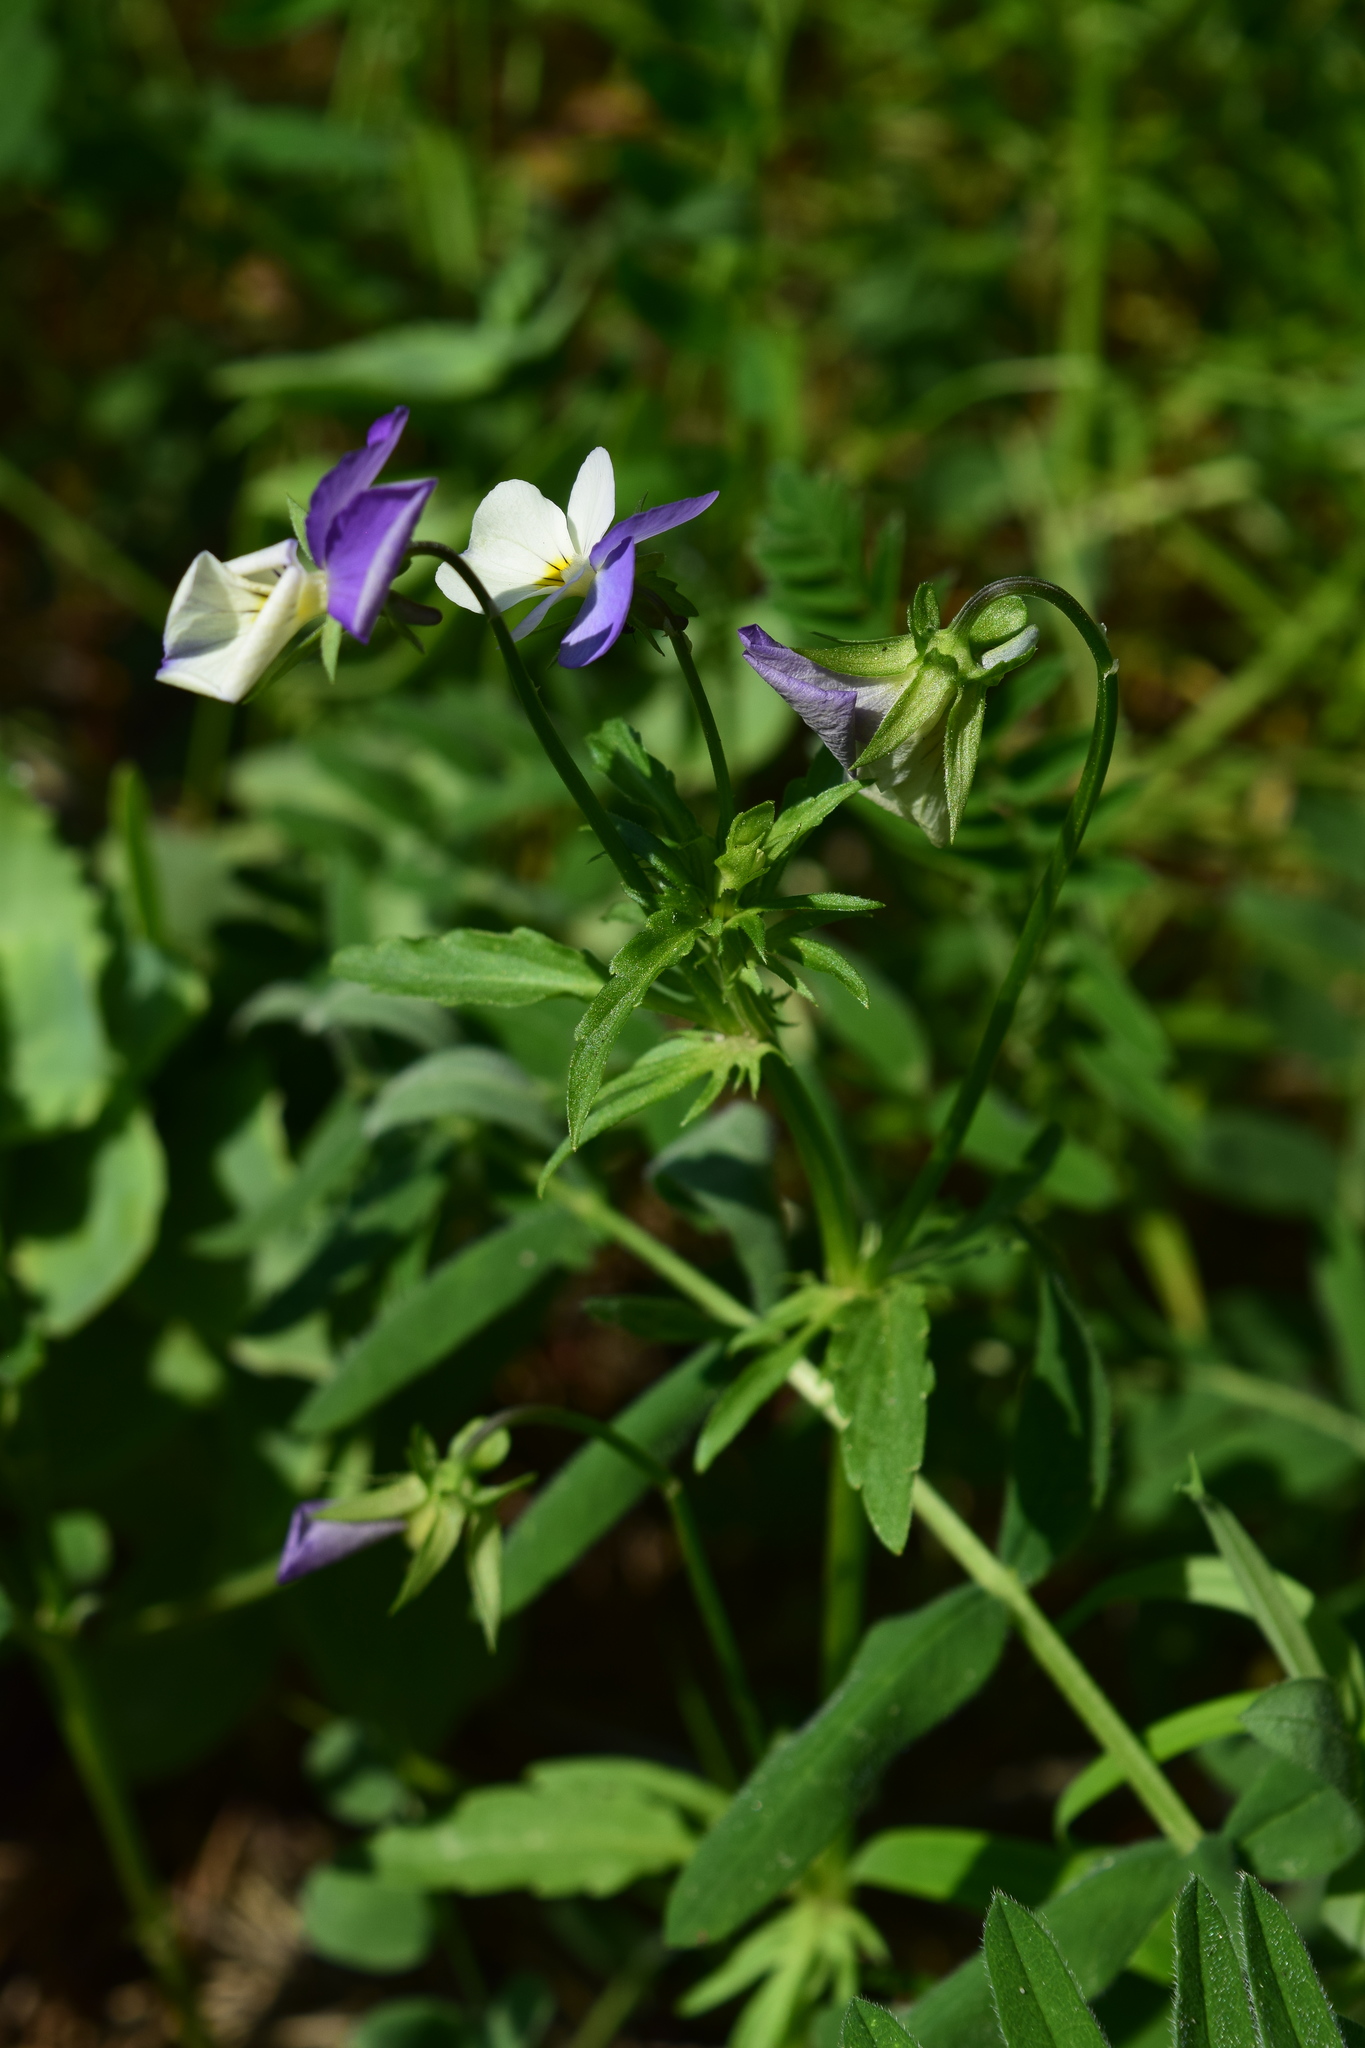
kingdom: Plantae
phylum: Tracheophyta
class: Magnoliopsida
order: Malpighiales
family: Violaceae
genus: Viola
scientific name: Viola tricolor
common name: Pansy
